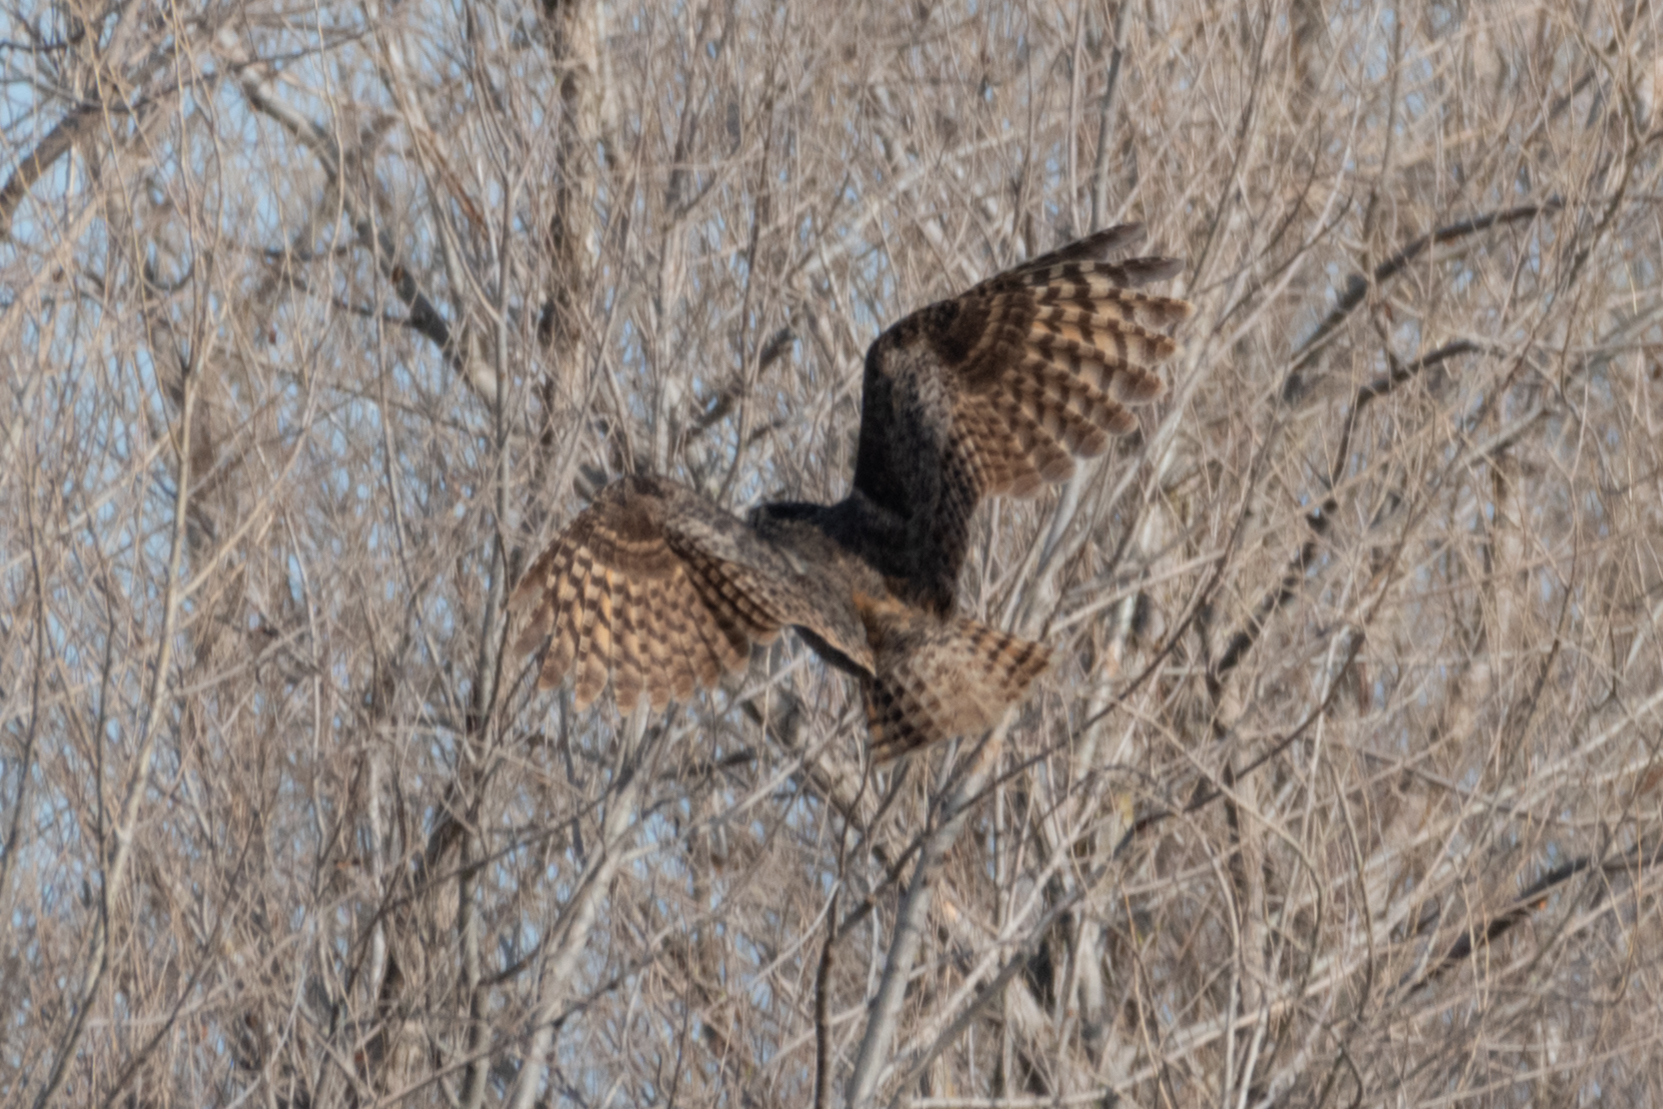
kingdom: Animalia
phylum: Chordata
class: Aves
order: Strigiformes
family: Strigidae
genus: Bubo
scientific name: Bubo virginianus
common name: Great horned owl
